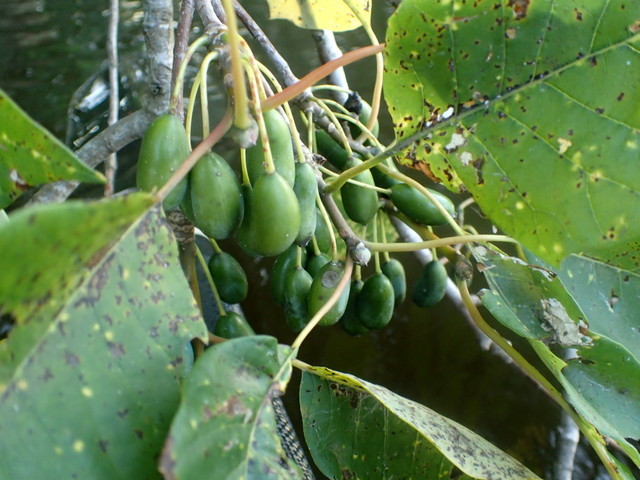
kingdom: Plantae
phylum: Tracheophyta
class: Magnoliopsida
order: Cornales
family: Nyssaceae
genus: Nyssa
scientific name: Nyssa ogeche
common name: Ogeechee tupelo
